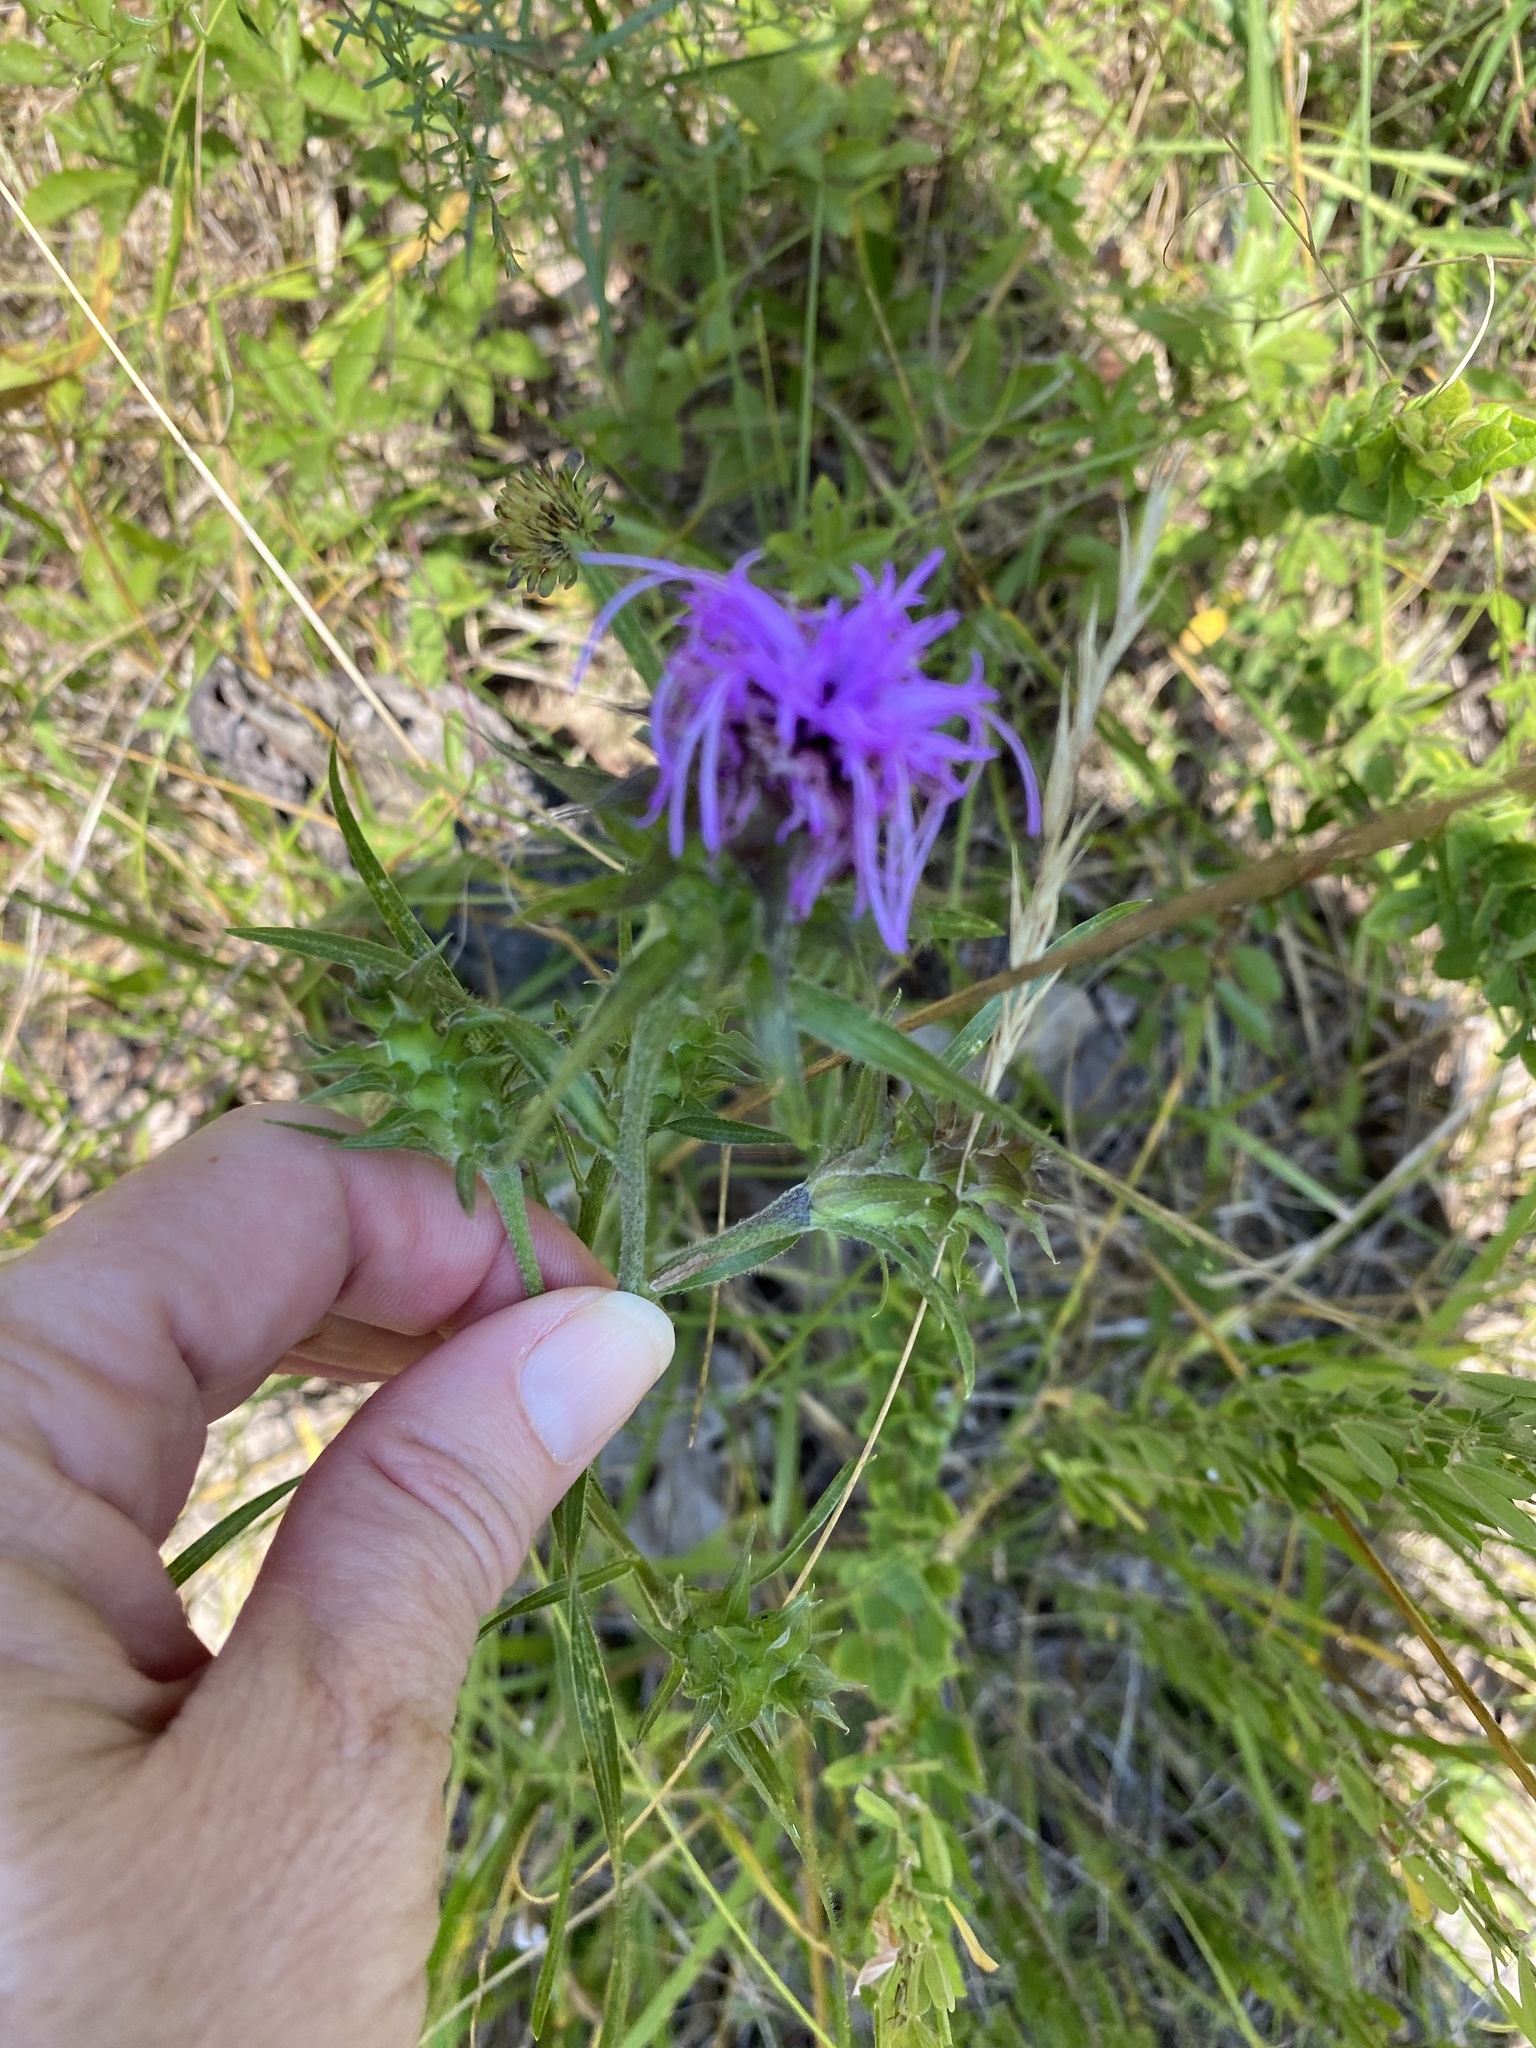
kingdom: Plantae
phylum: Tracheophyta
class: Magnoliopsida
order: Asterales
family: Asteraceae
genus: Liatris
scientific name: Liatris squarrosa
